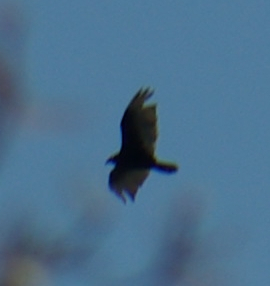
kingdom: Animalia
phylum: Chordata
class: Aves
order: Accipitriformes
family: Cathartidae
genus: Cathartes
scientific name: Cathartes aura
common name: Turkey vulture
